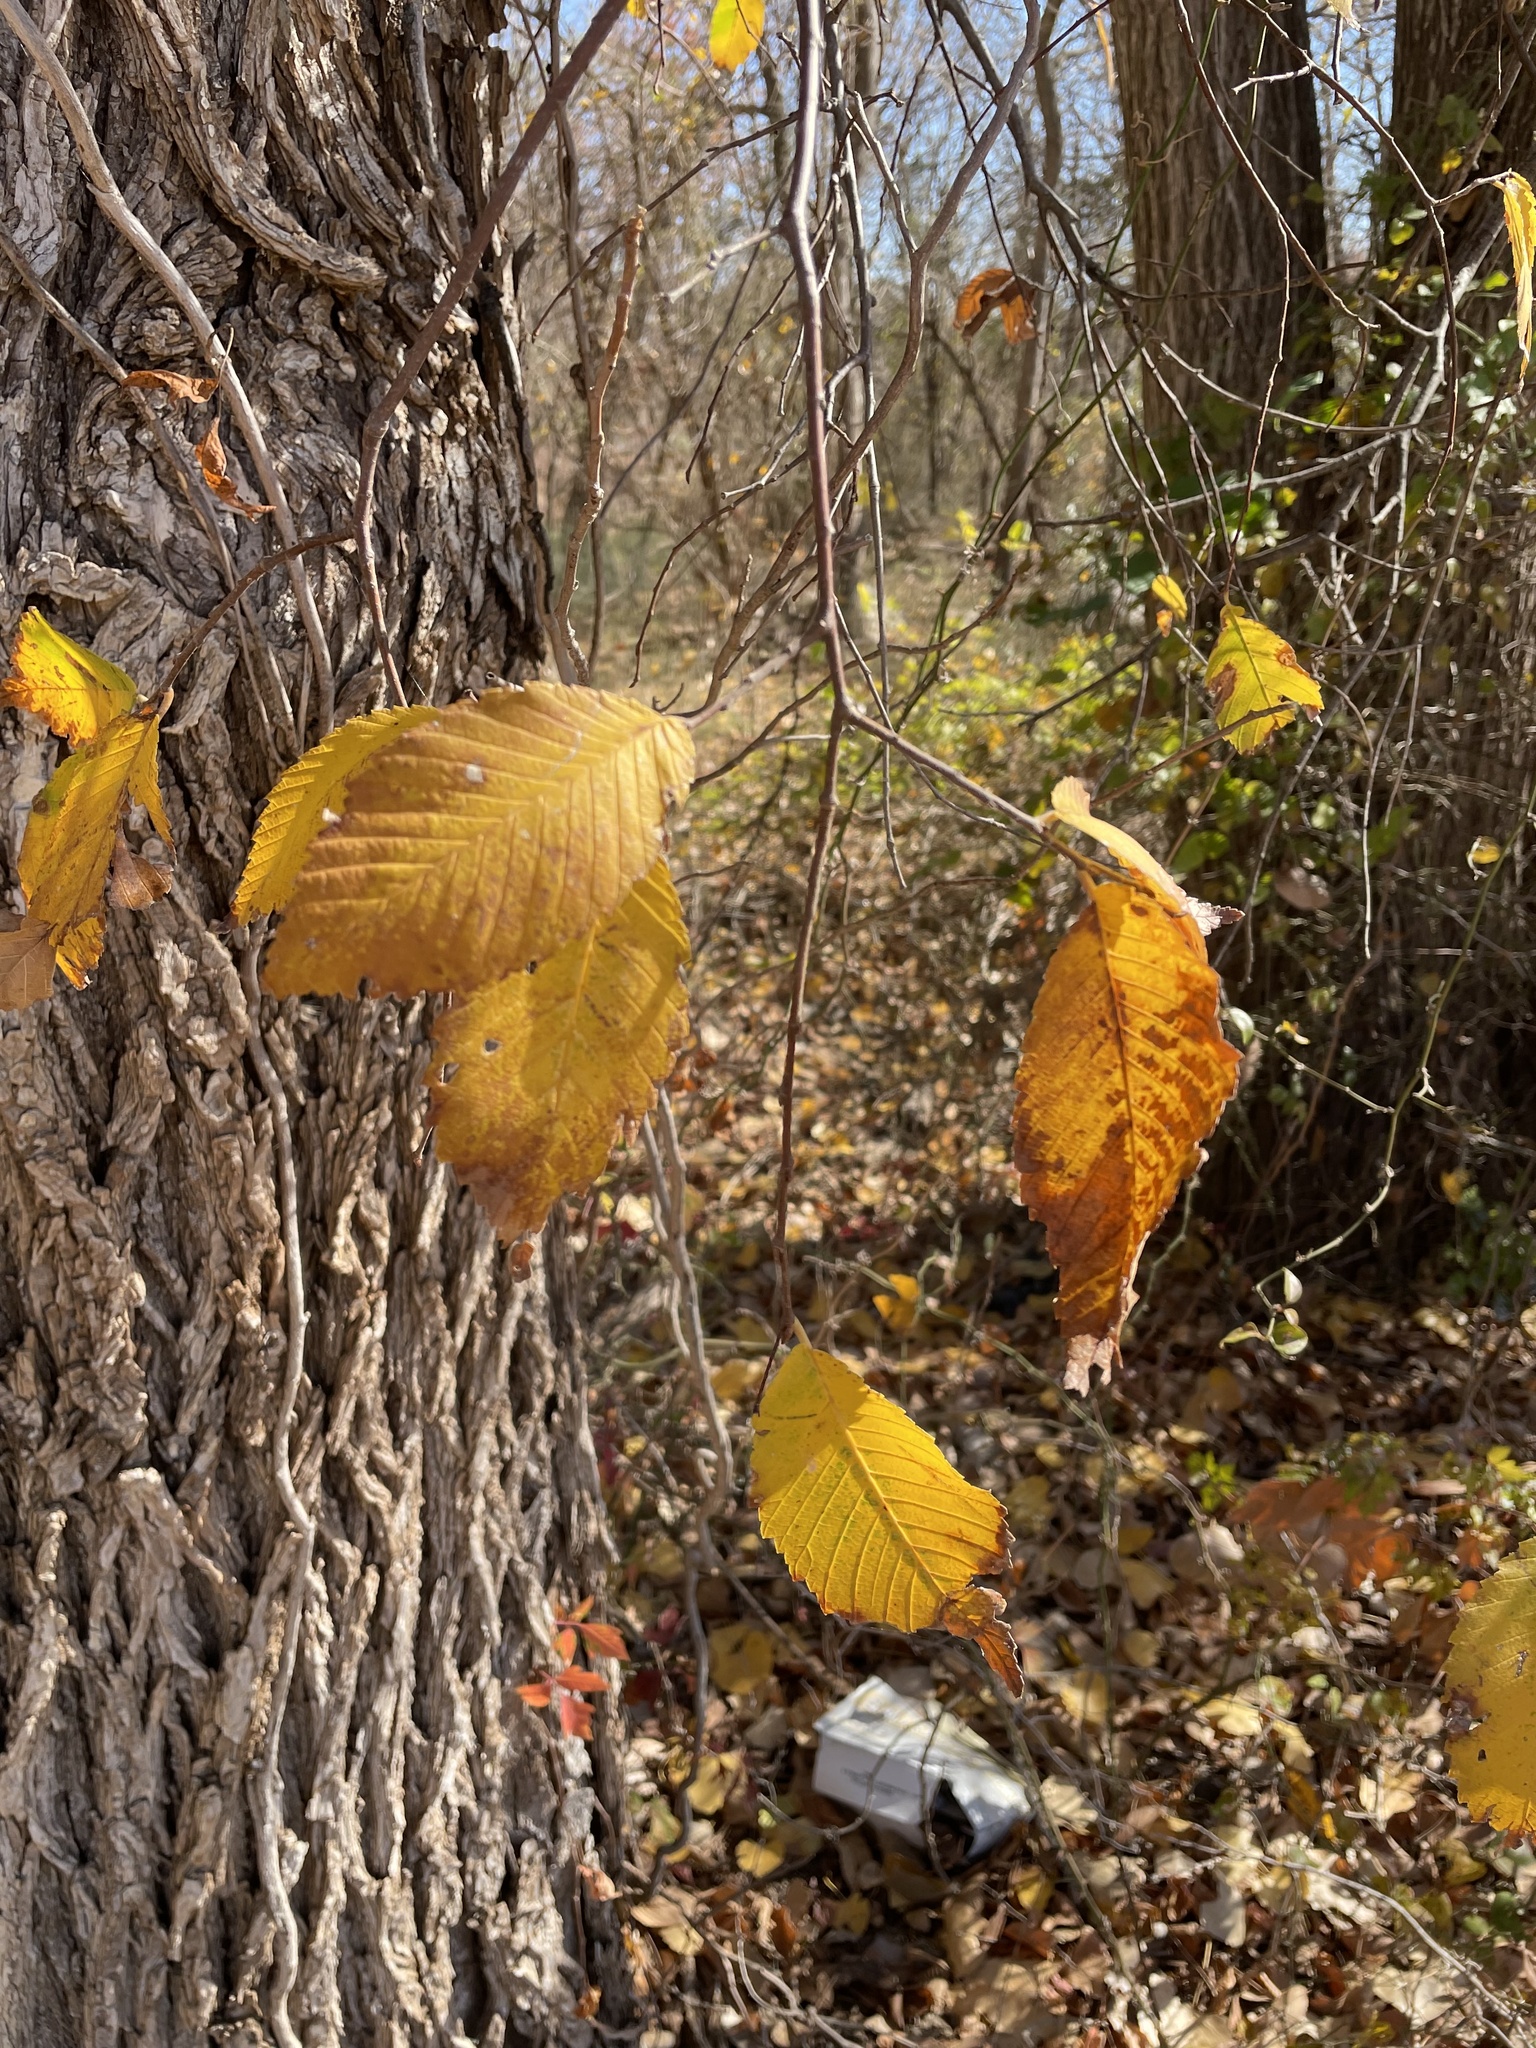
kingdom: Plantae
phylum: Tracheophyta
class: Magnoliopsida
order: Rosales
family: Ulmaceae
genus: Ulmus
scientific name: Ulmus americana
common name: American elm
